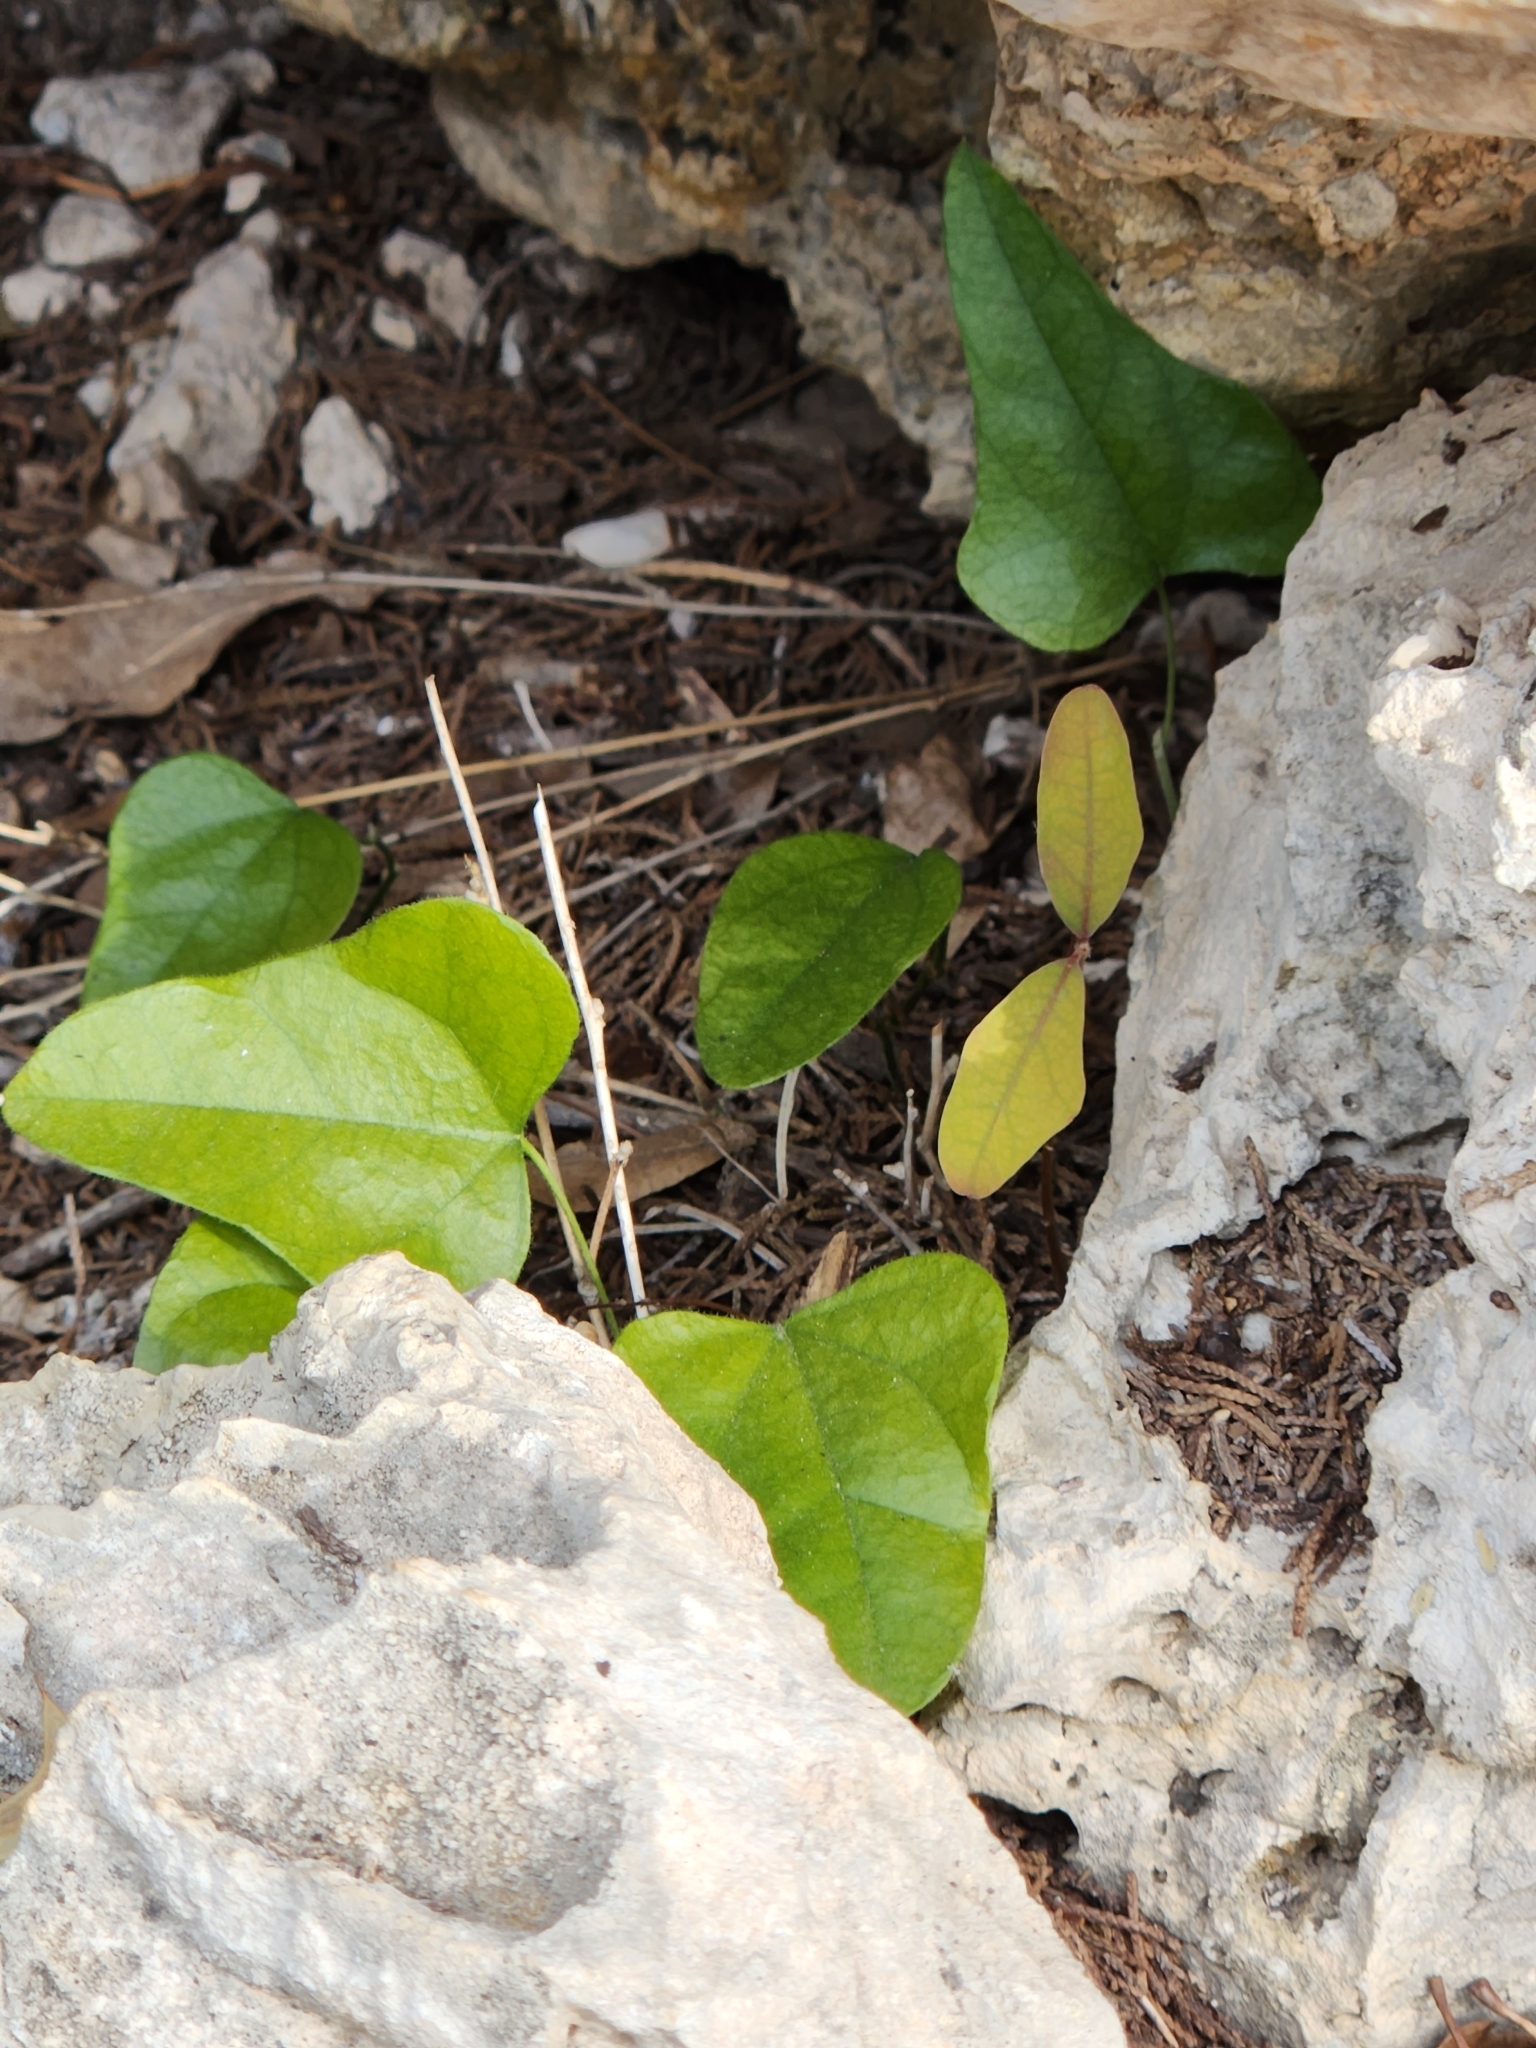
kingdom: Plantae
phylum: Tracheophyta
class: Magnoliopsida
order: Ranunculales
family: Menispermaceae
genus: Cocculus
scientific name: Cocculus carolinus
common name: Carolina moonseed
